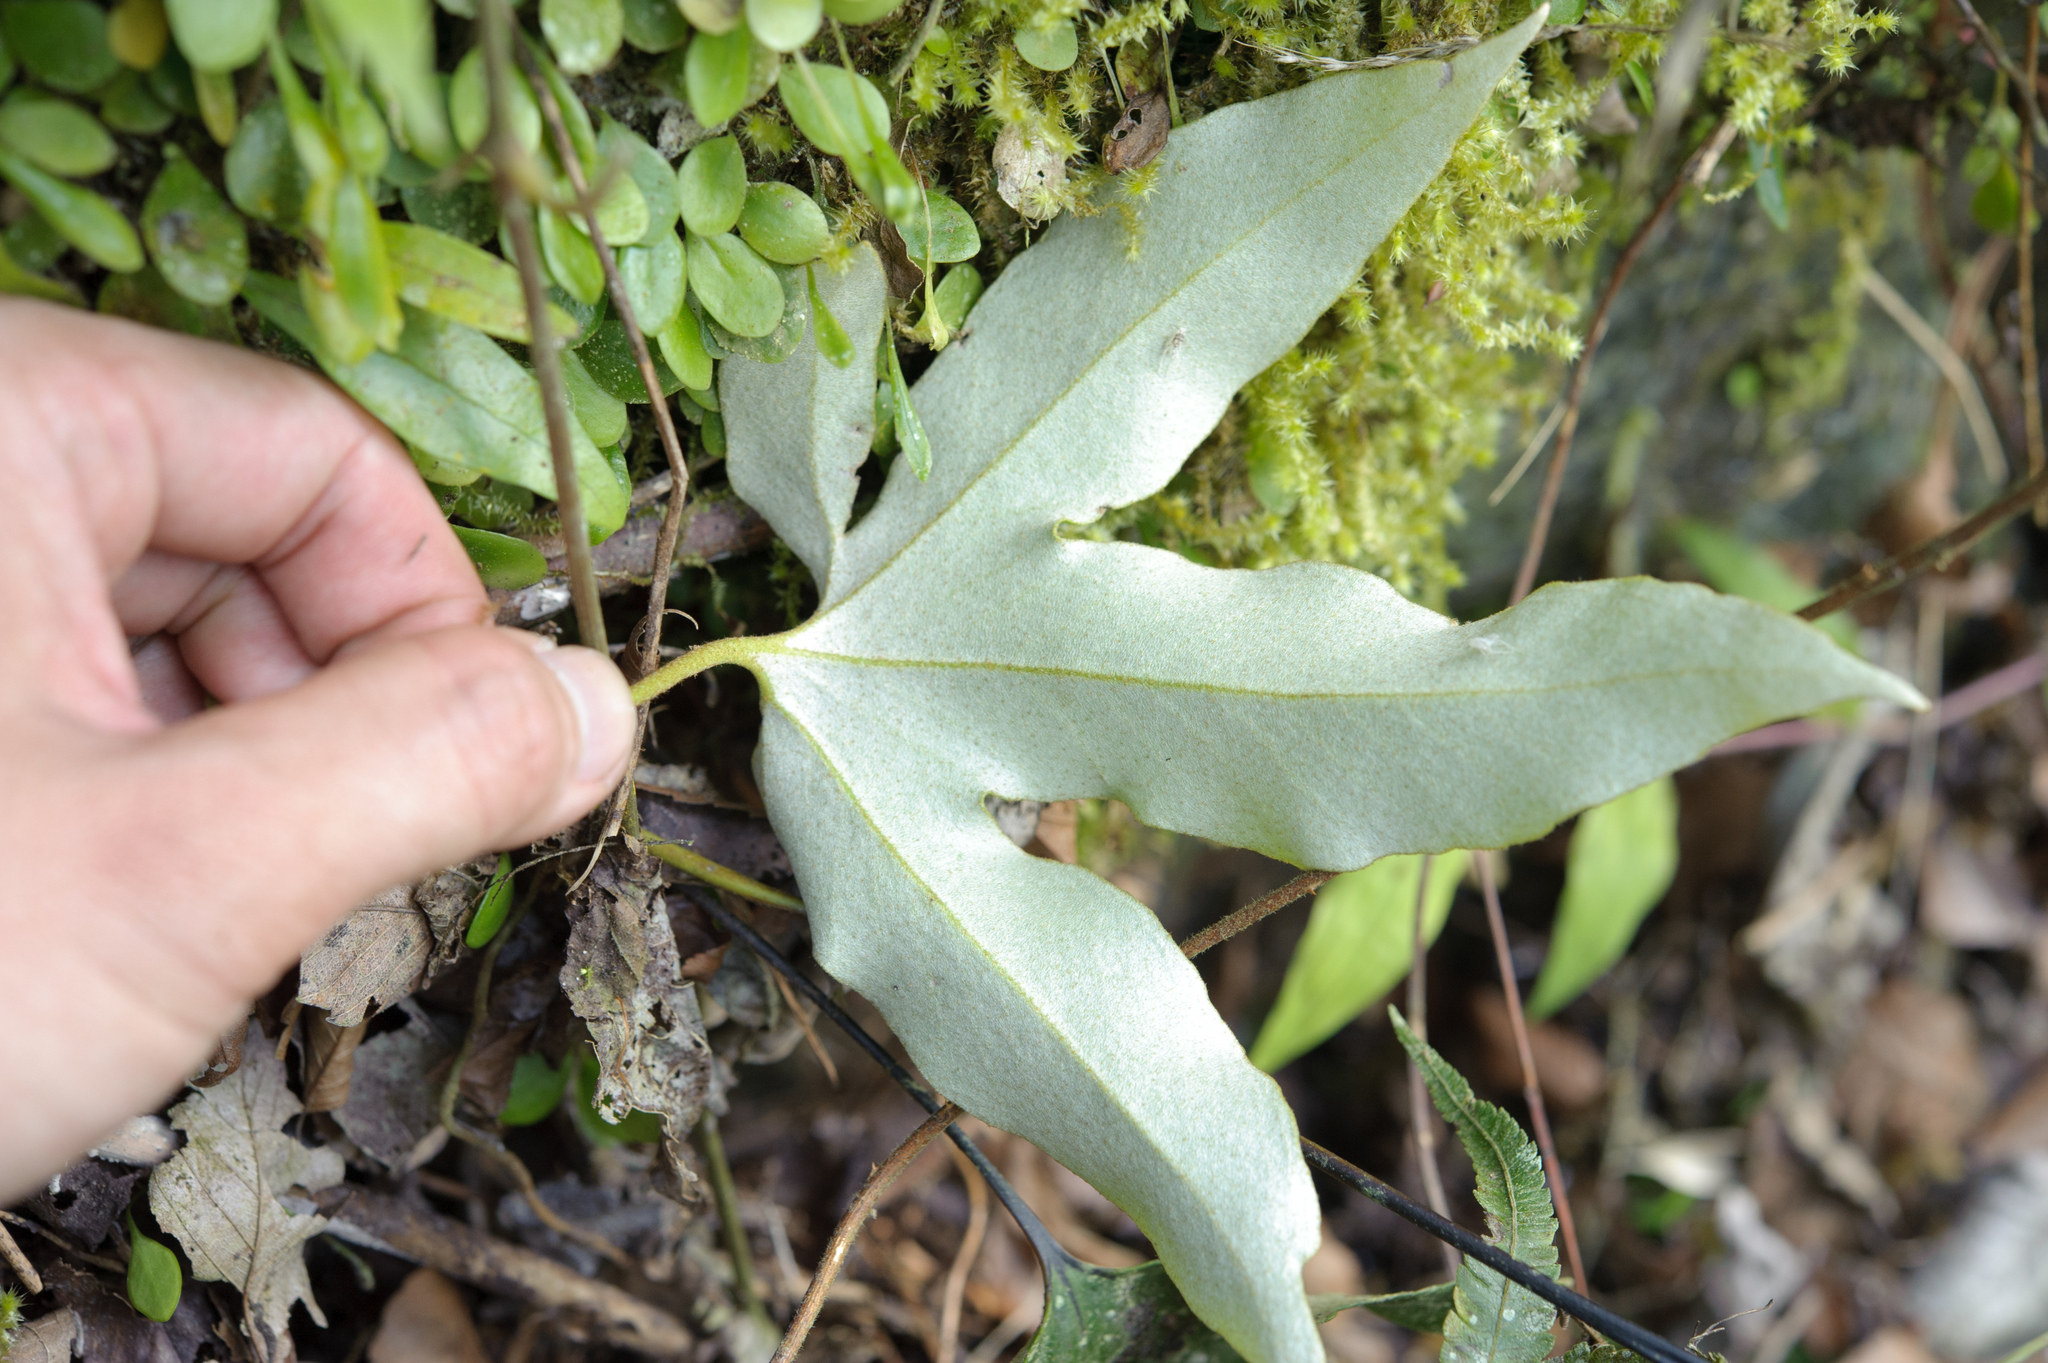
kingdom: Plantae
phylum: Tracheophyta
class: Polypodiopsida
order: Polypodiales
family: Polypodiaceae
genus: Pyrrosia
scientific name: Pyrrosia polydactyla
